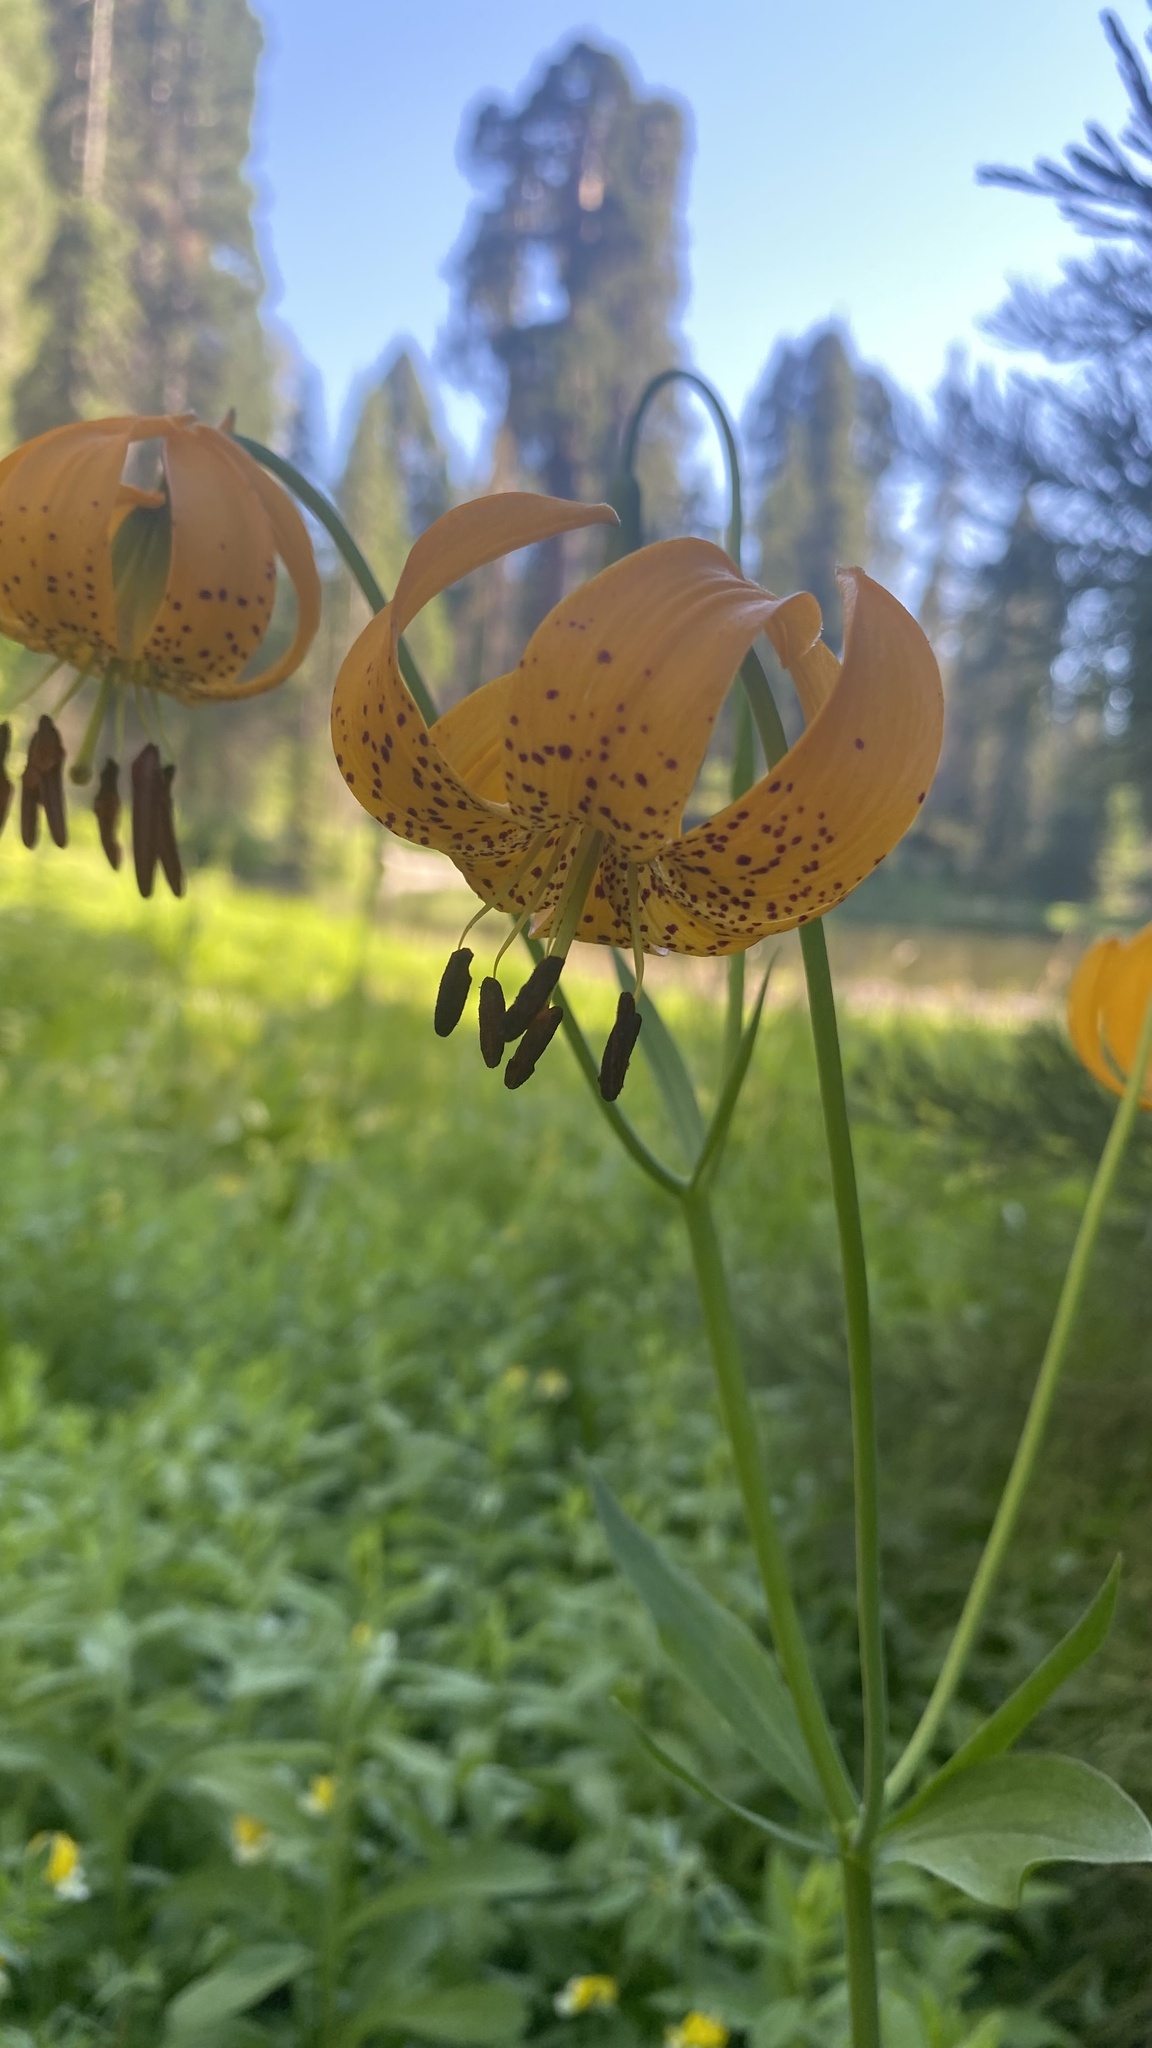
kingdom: Plantae
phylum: Tracheophyta
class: Liliopsida
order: Liliales
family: Liliaceae
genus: Lilium
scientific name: Lilium kelleyanum
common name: Kelley's lily
